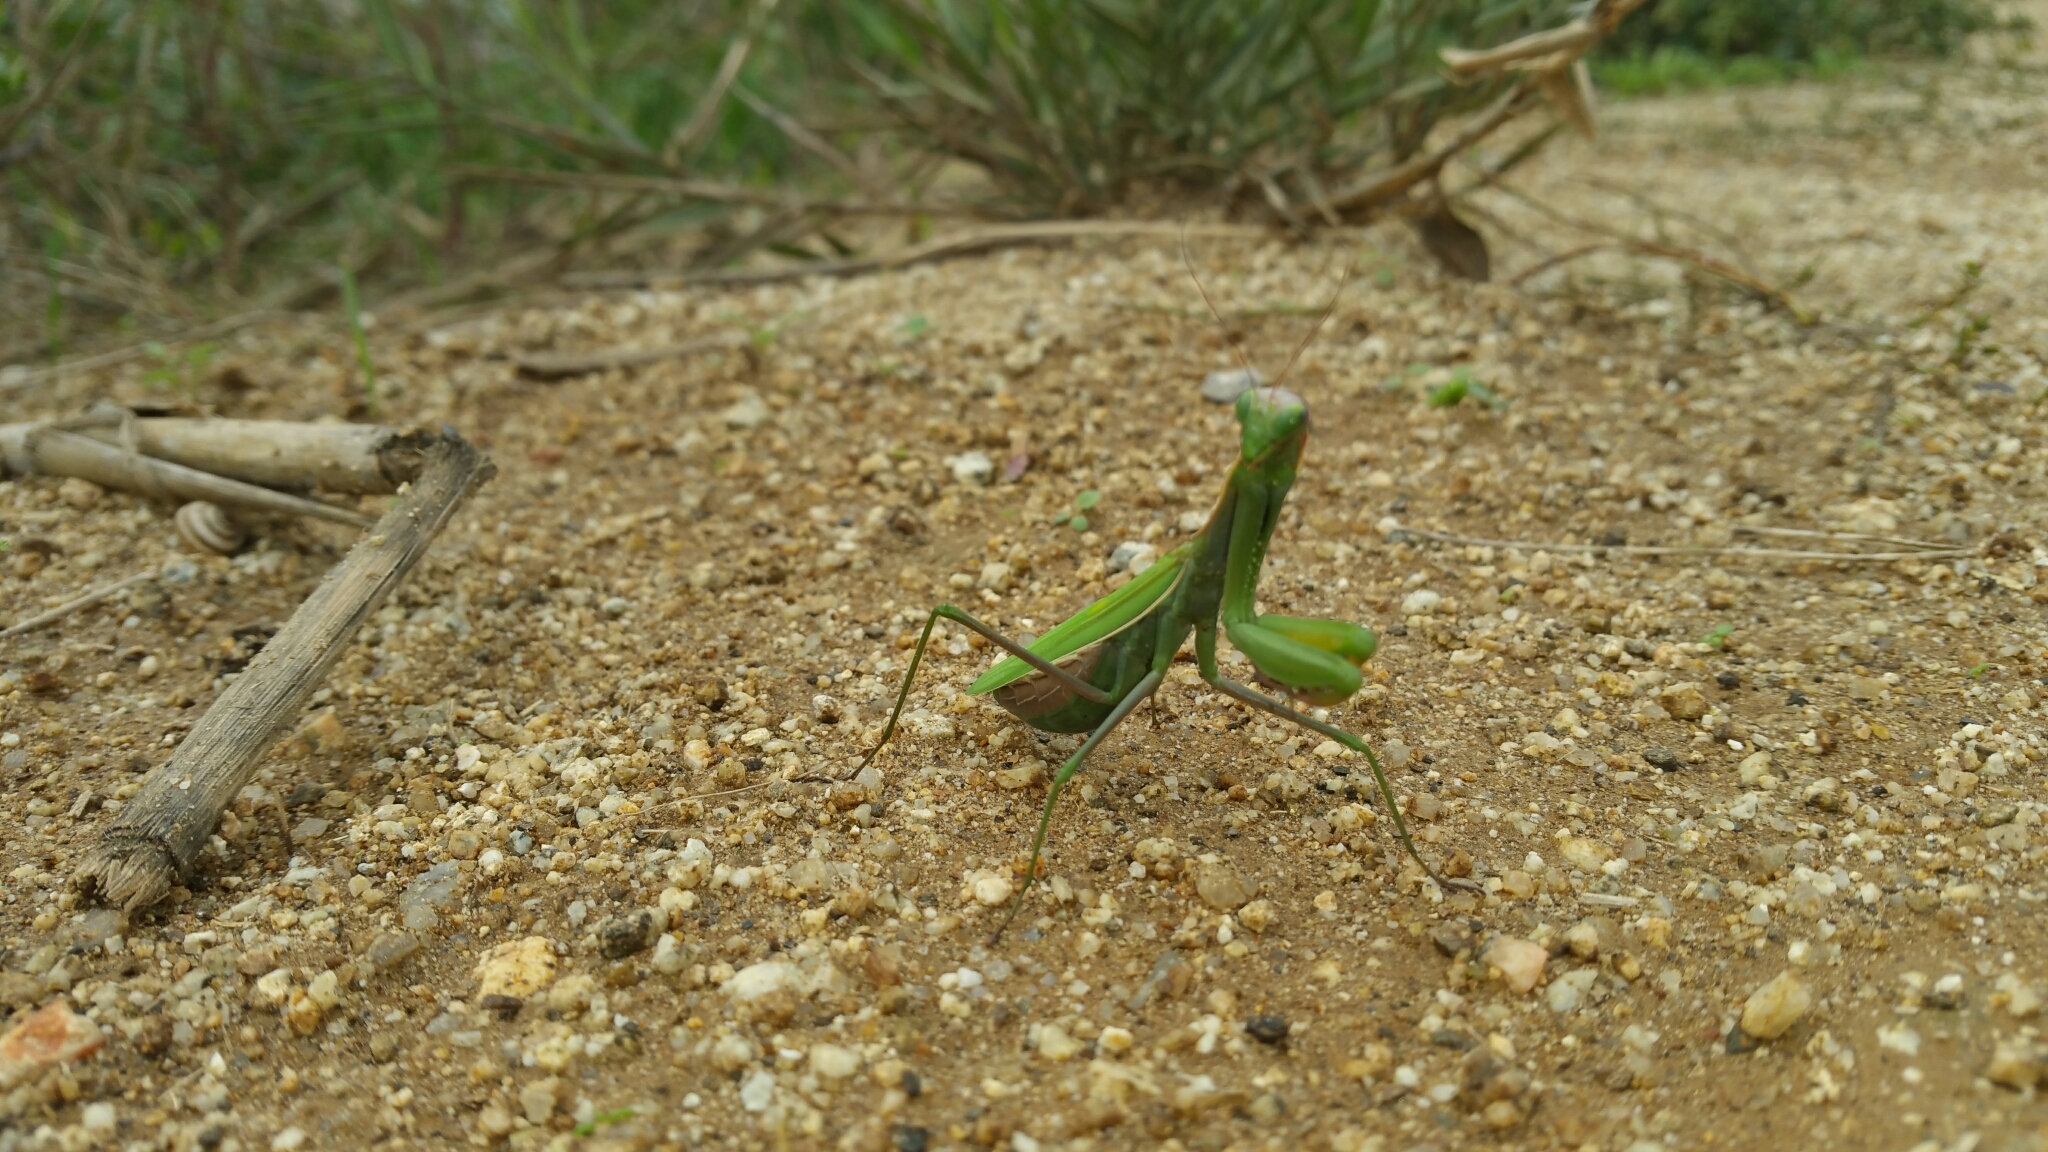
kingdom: Animalia
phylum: Arthropoda
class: Insecta
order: Mantodea
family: Mantidae
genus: Mantis
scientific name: Mantis religiosa
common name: Praying mantis
